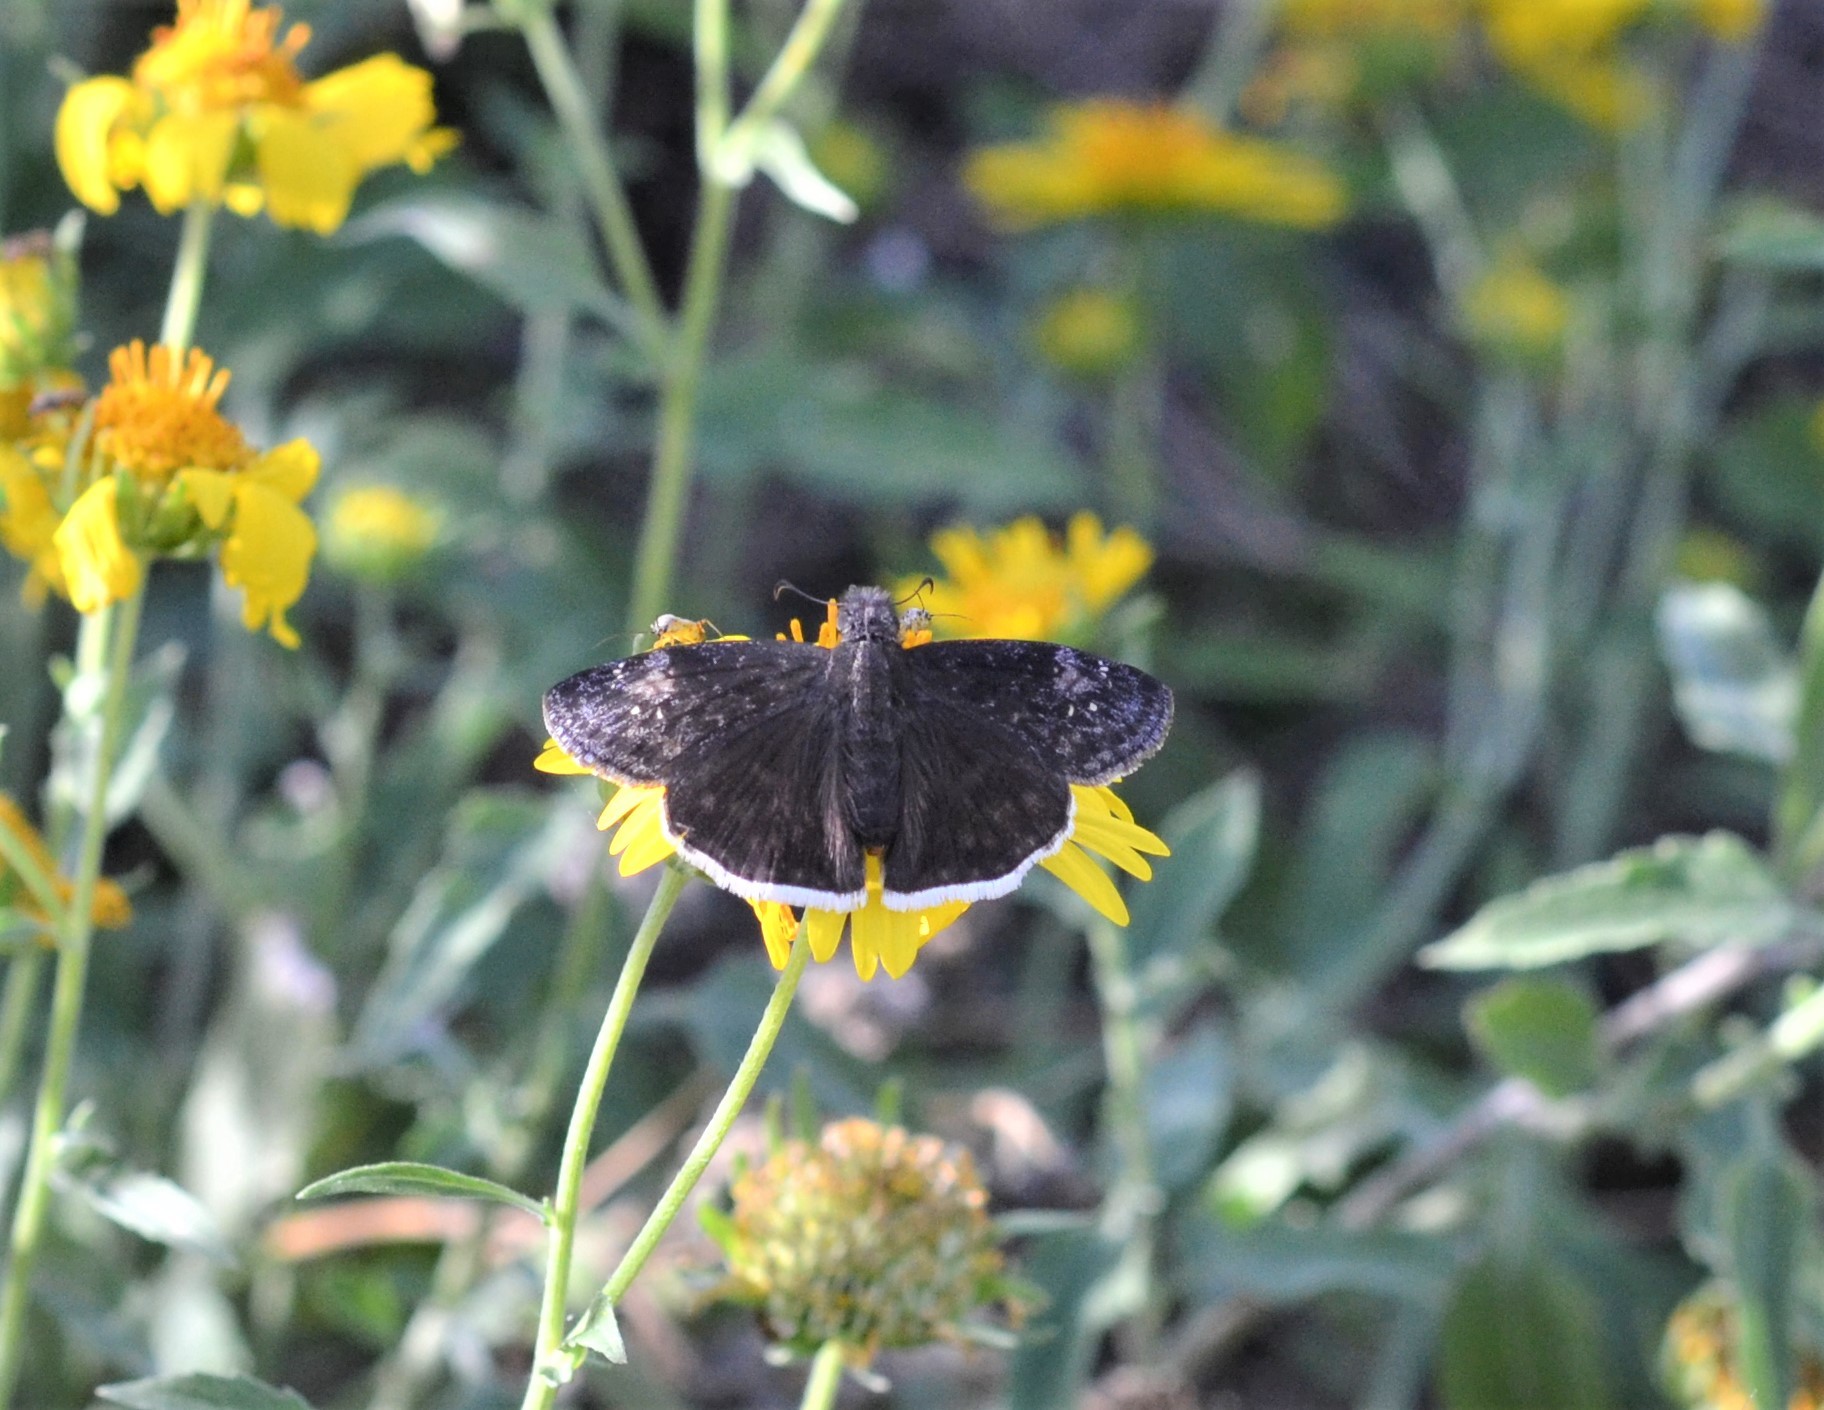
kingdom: Animalia
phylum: Arthropoda
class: Insecta
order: Lepidoptera
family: Hesperiidae
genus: Erynnis
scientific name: Erynnis funeralis
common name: Funereal duskywing
